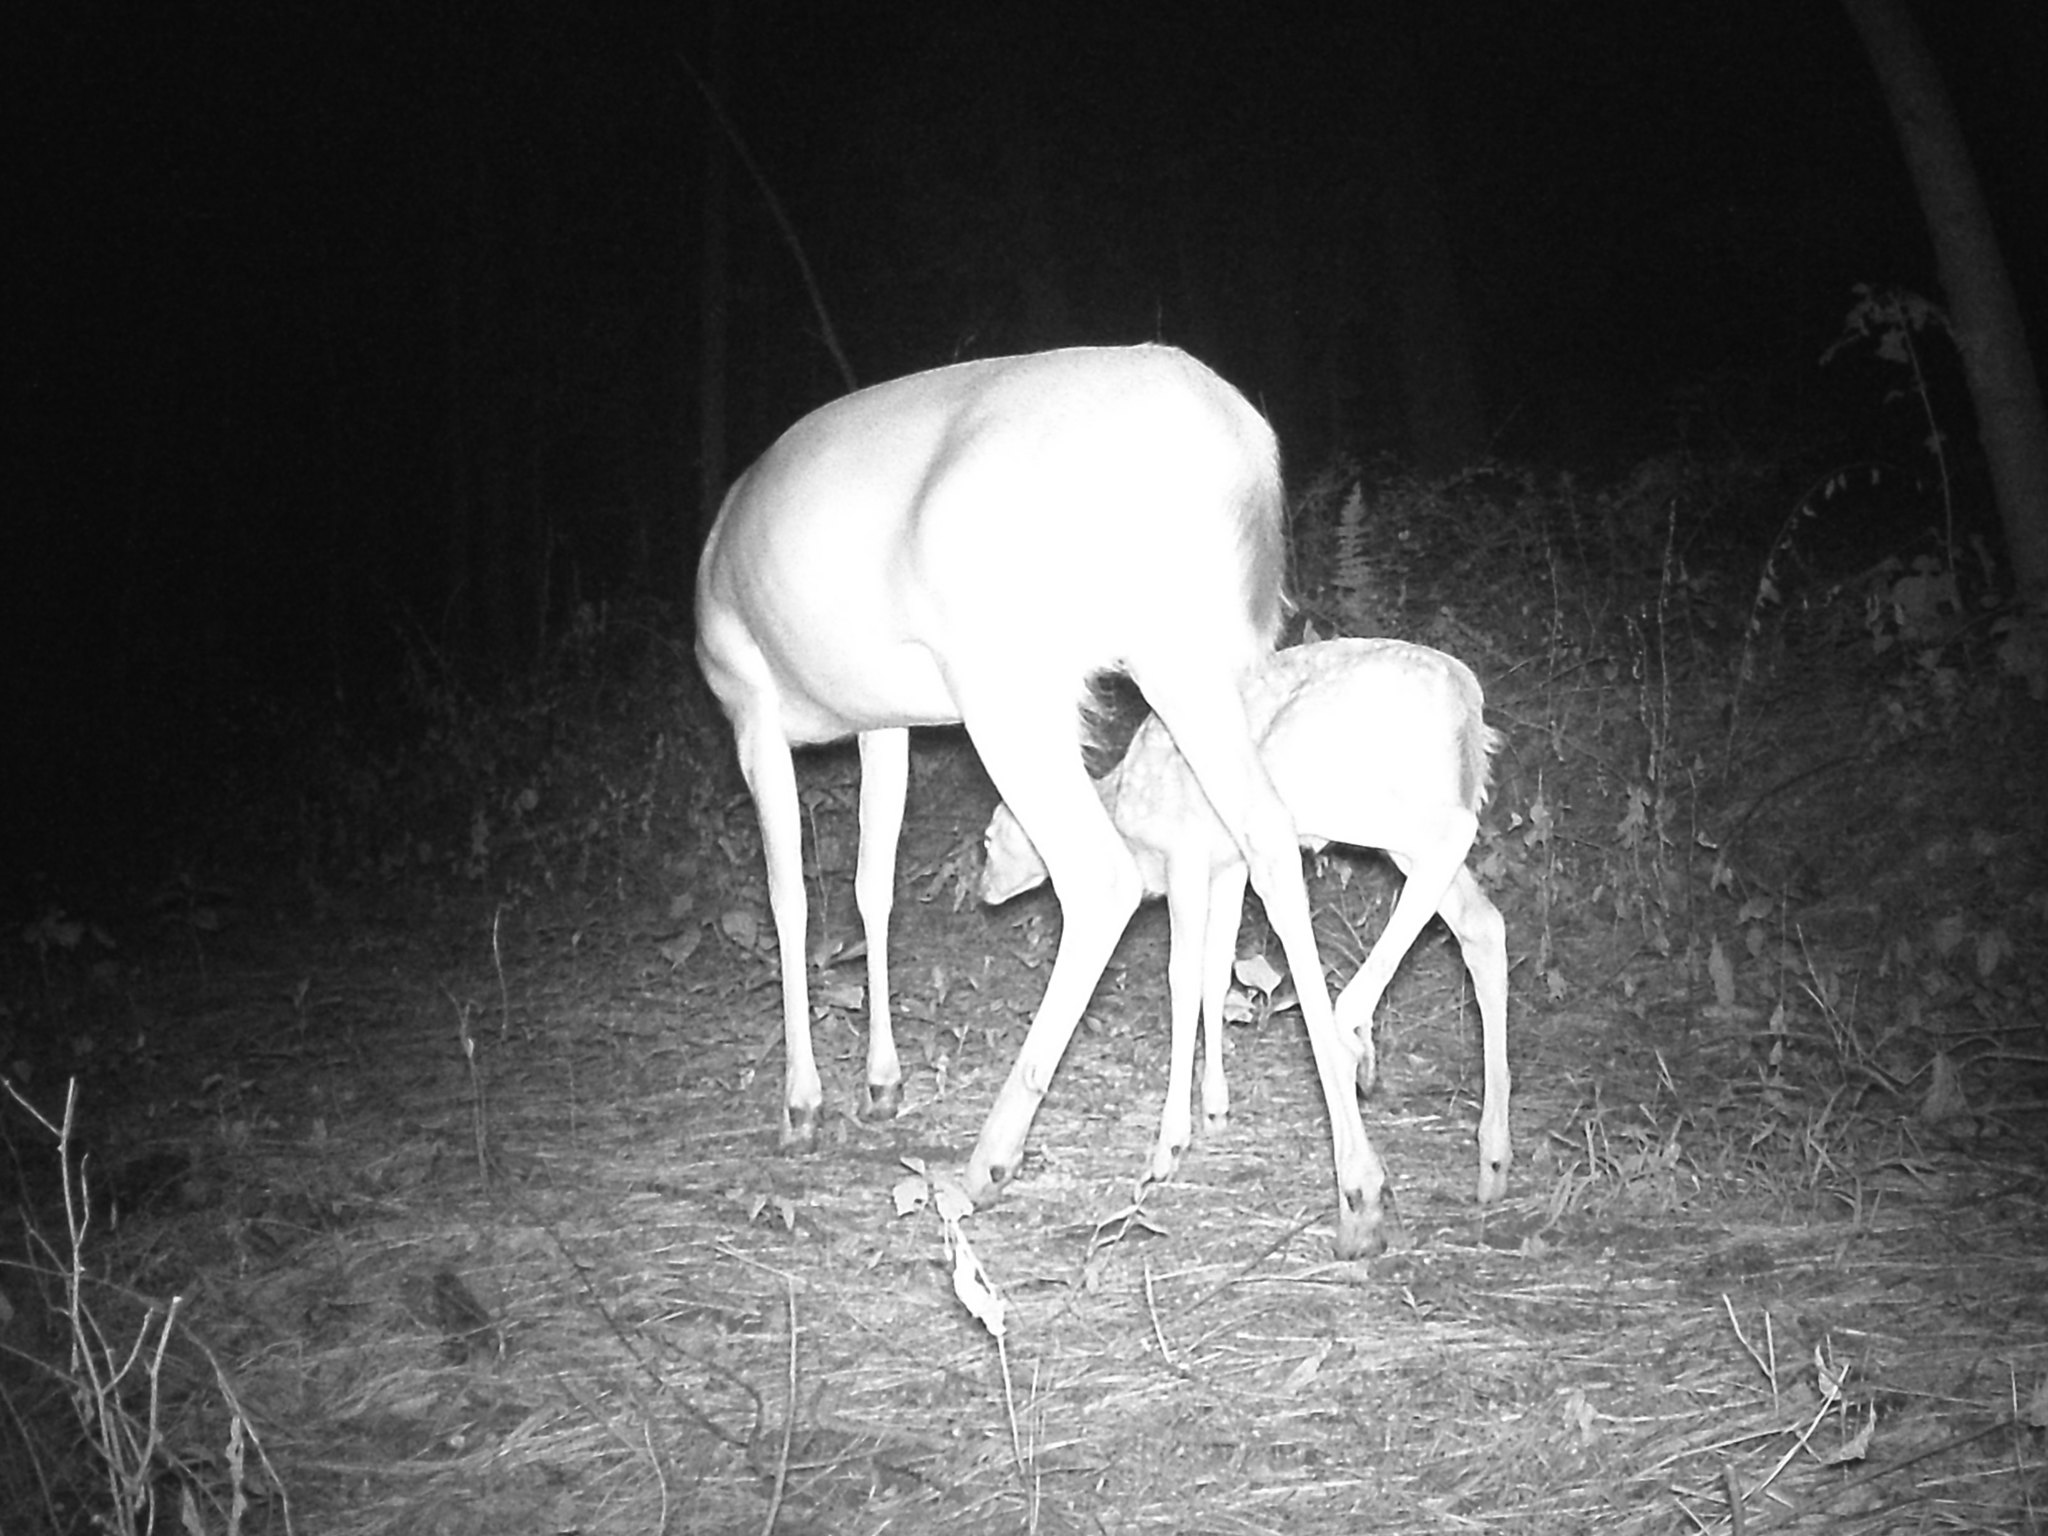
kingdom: Animalia
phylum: Chordata
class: Mammalia
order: Artiodactyla
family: Cervidae
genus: Odocoileus
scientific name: Odocoileus virginianus
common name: White-tailed deer
